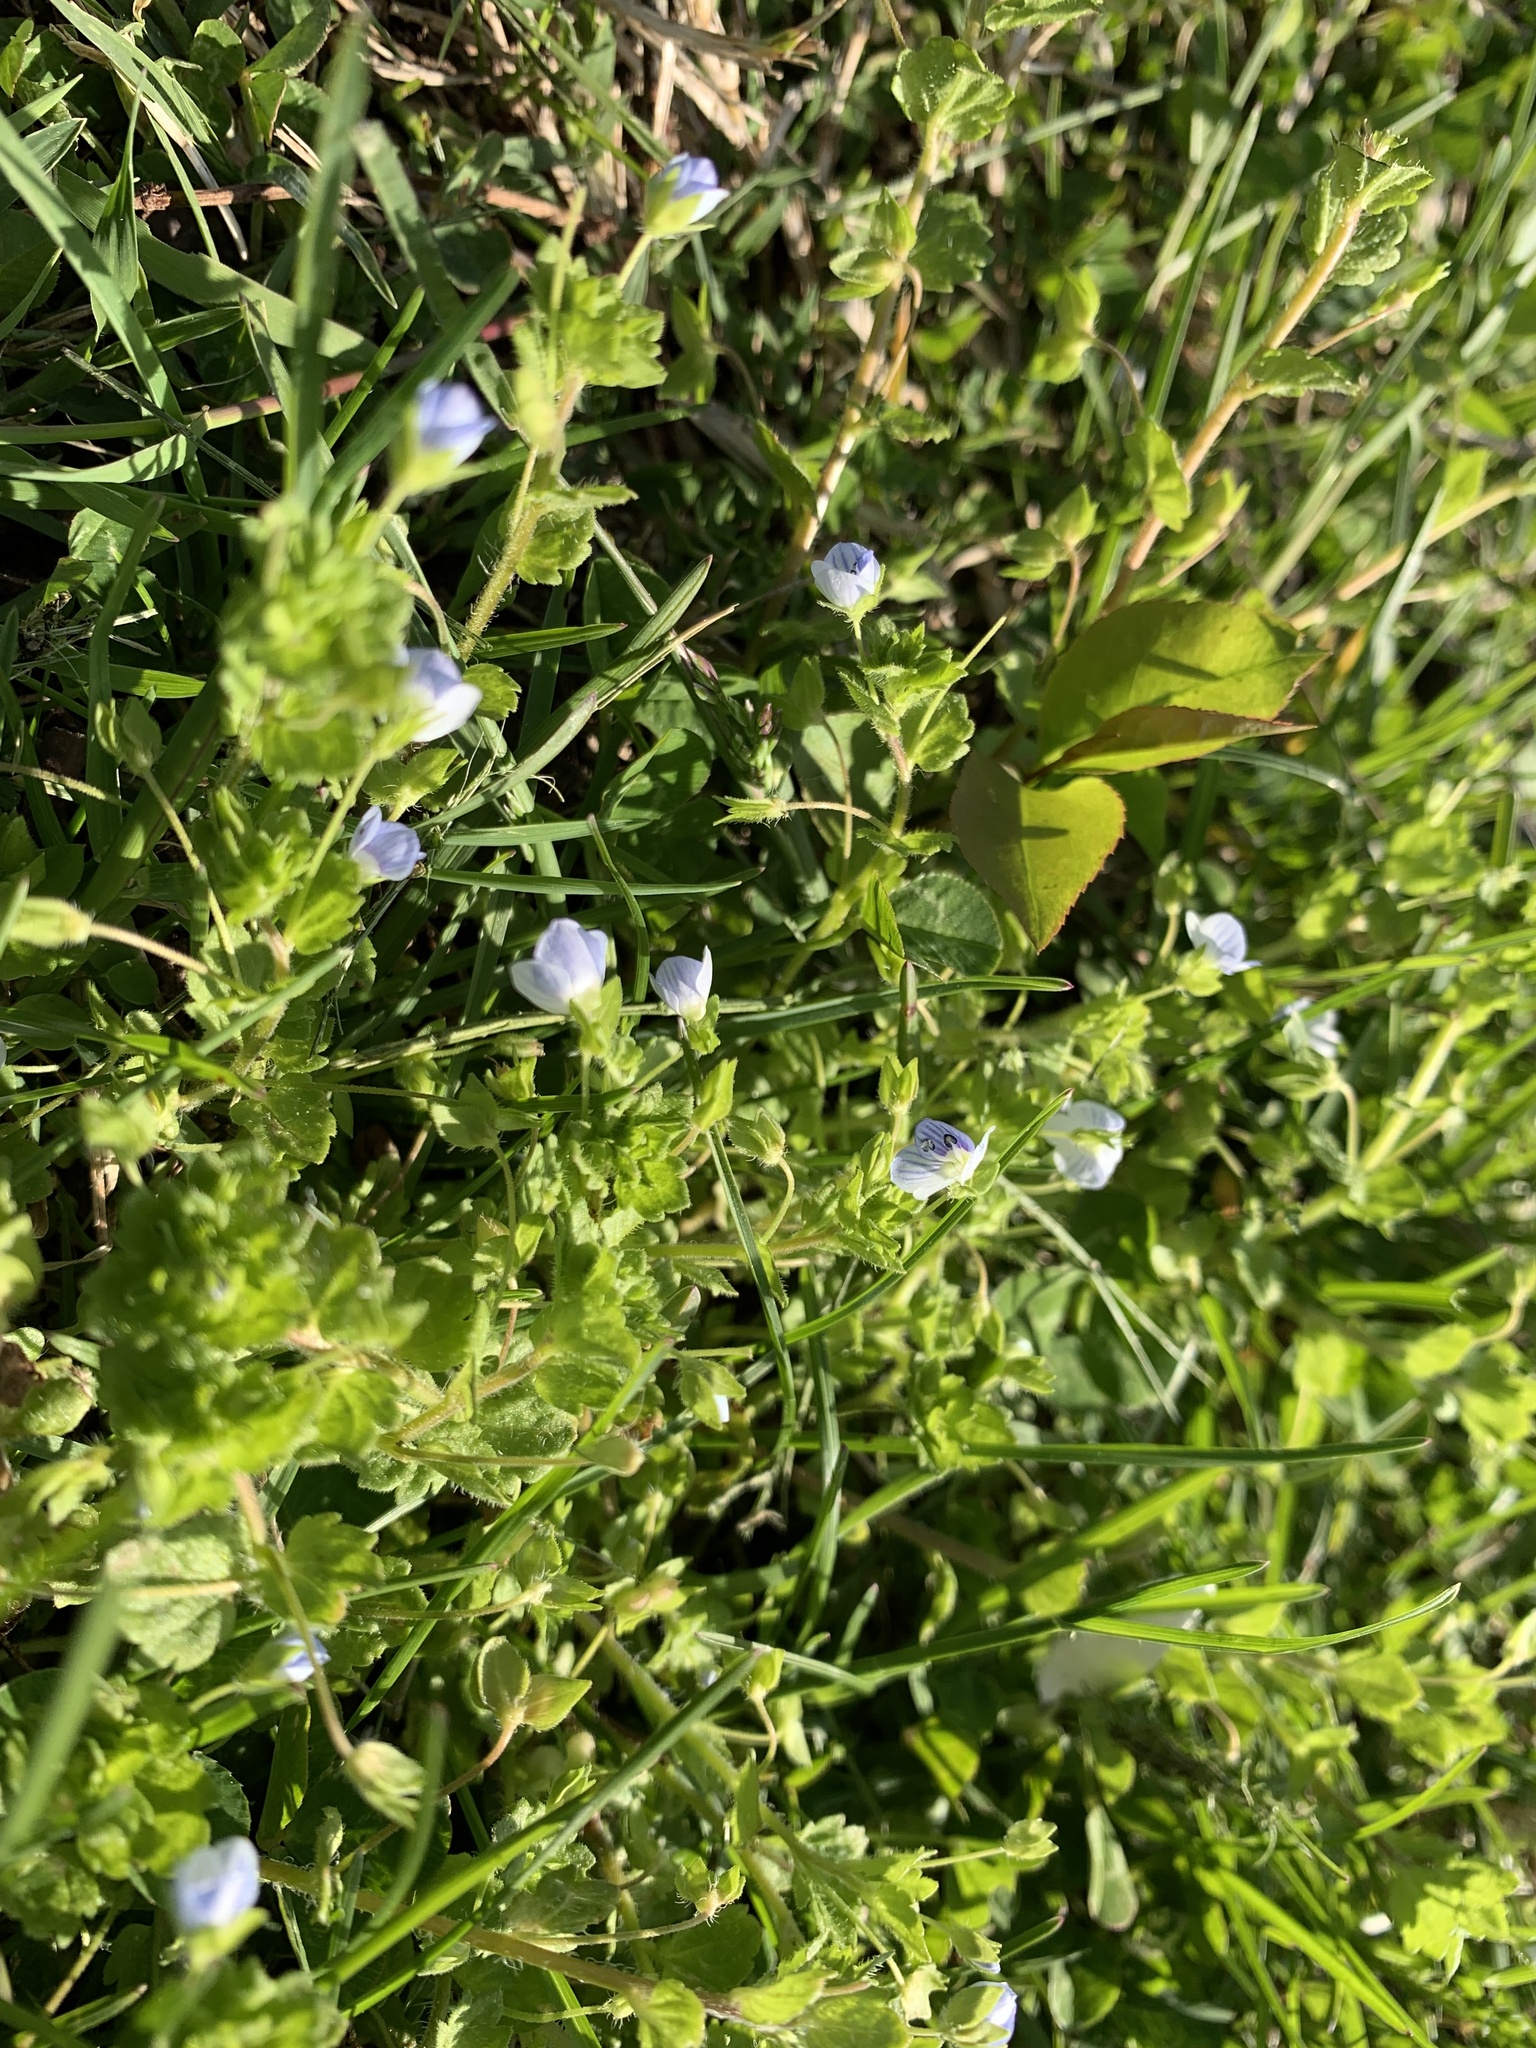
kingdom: Plantae
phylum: Tracheophyta
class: Magnoliopsida
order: Lamiales
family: Plantaginaceae
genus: Veronica
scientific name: Veronica persica
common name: Common field-speedwell
